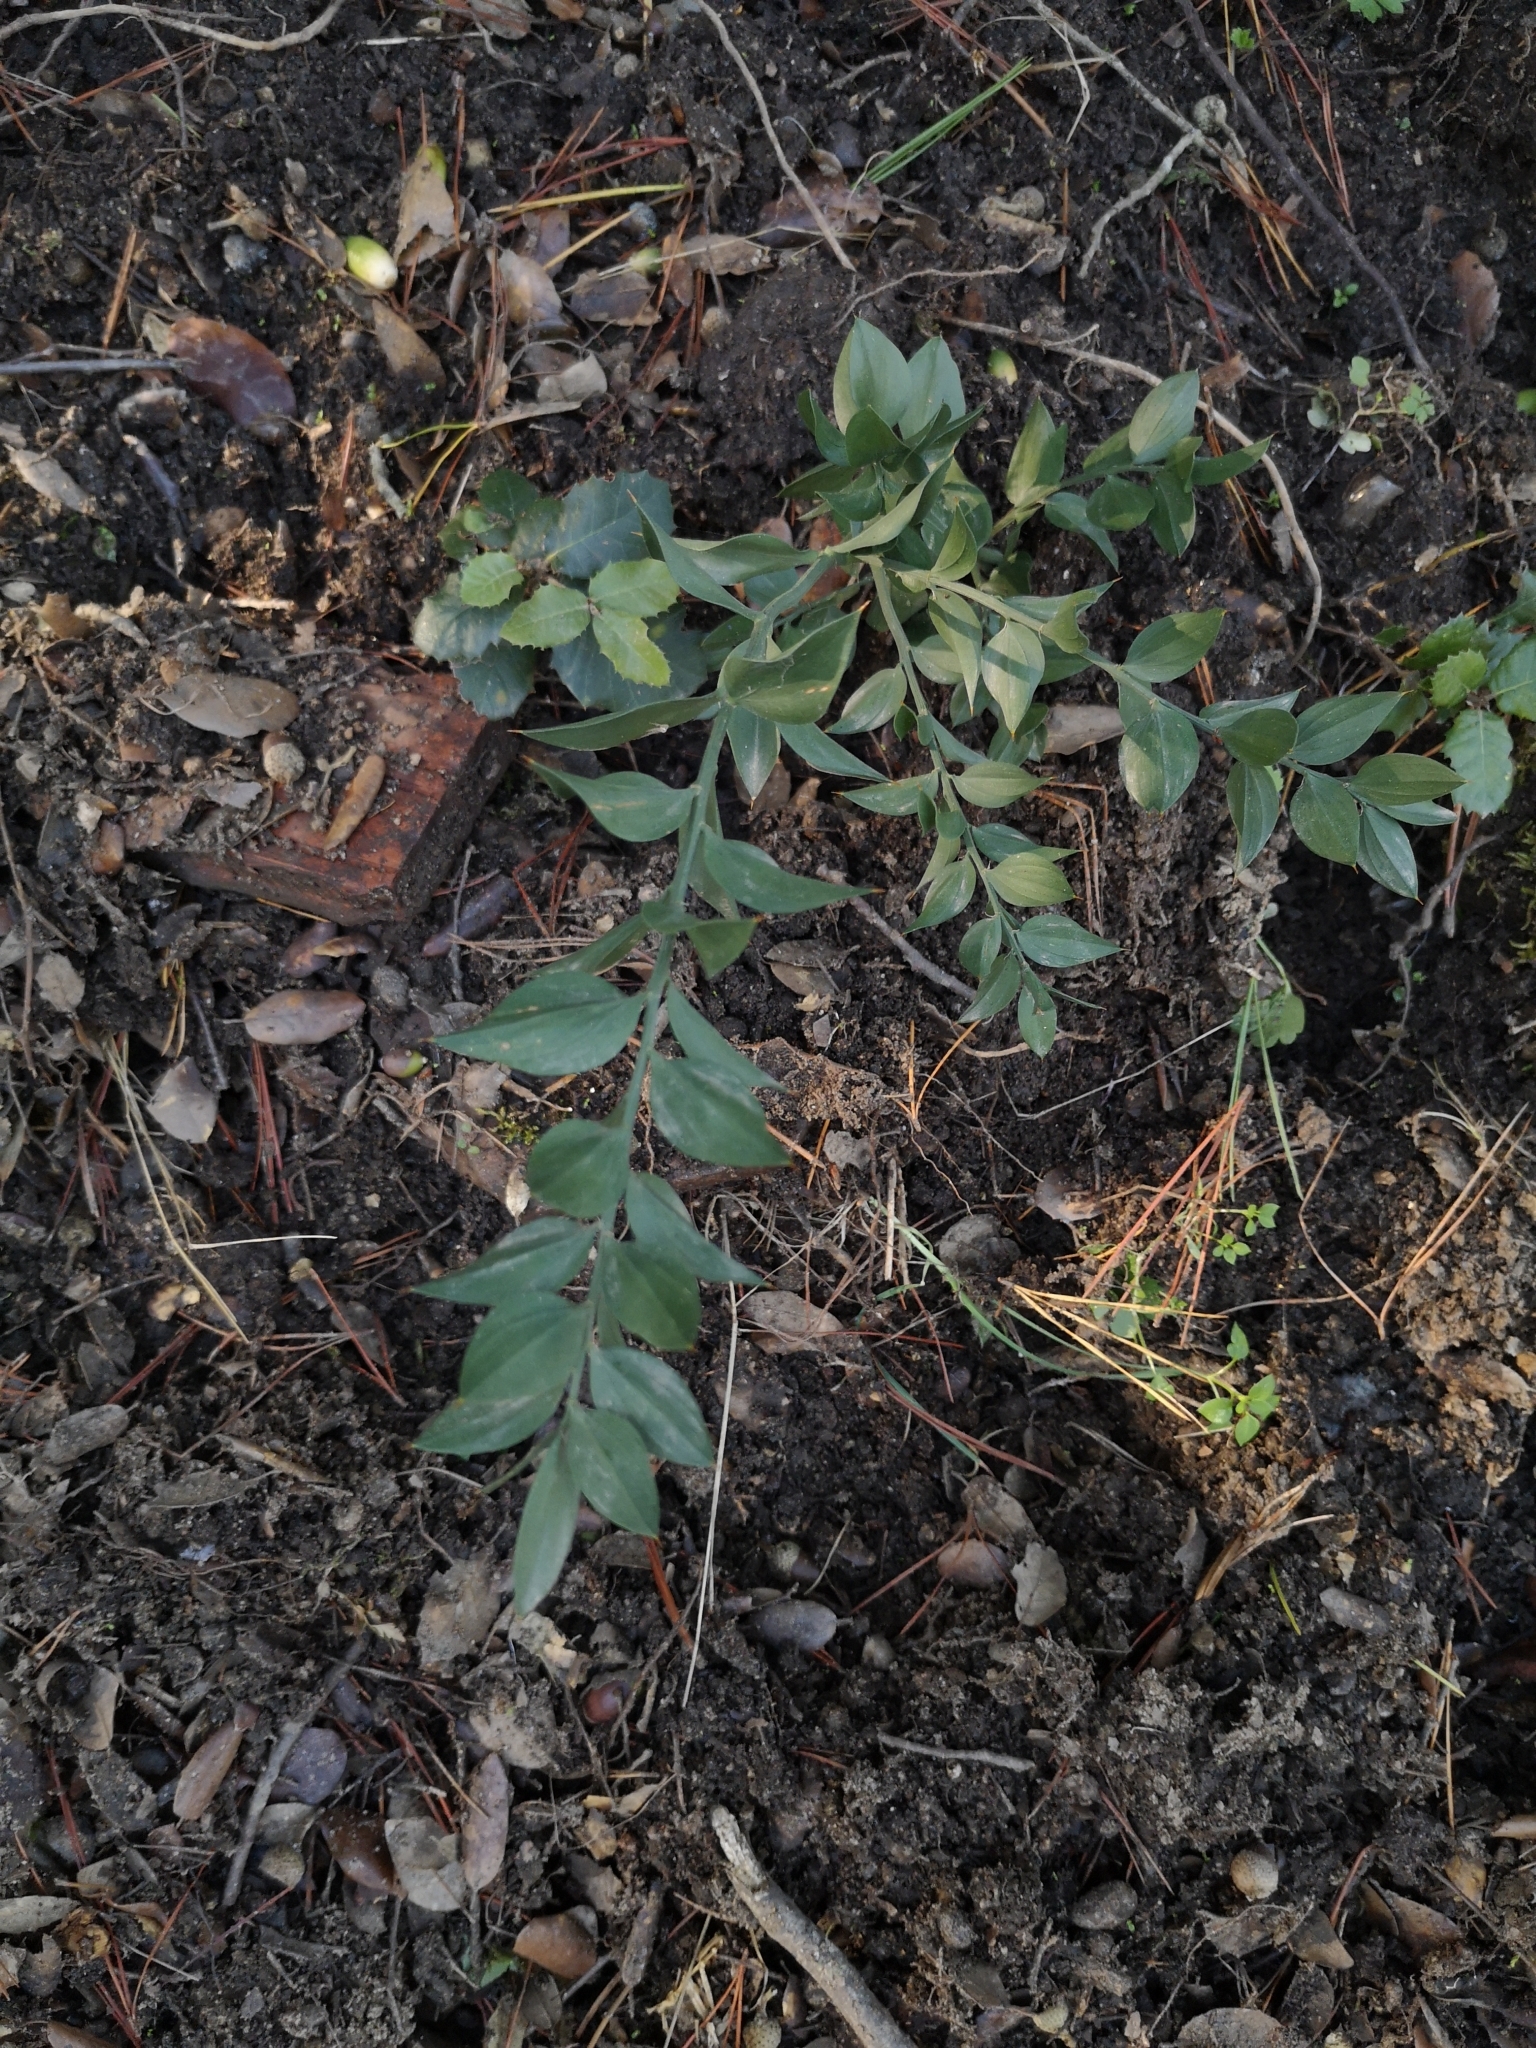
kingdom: Plantae
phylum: Tracheophyta
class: Liliopsida
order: Asparagales
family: Asparagaceae
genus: Ruscus
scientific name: Ruscus aculeatus
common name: Butcher's-broom
